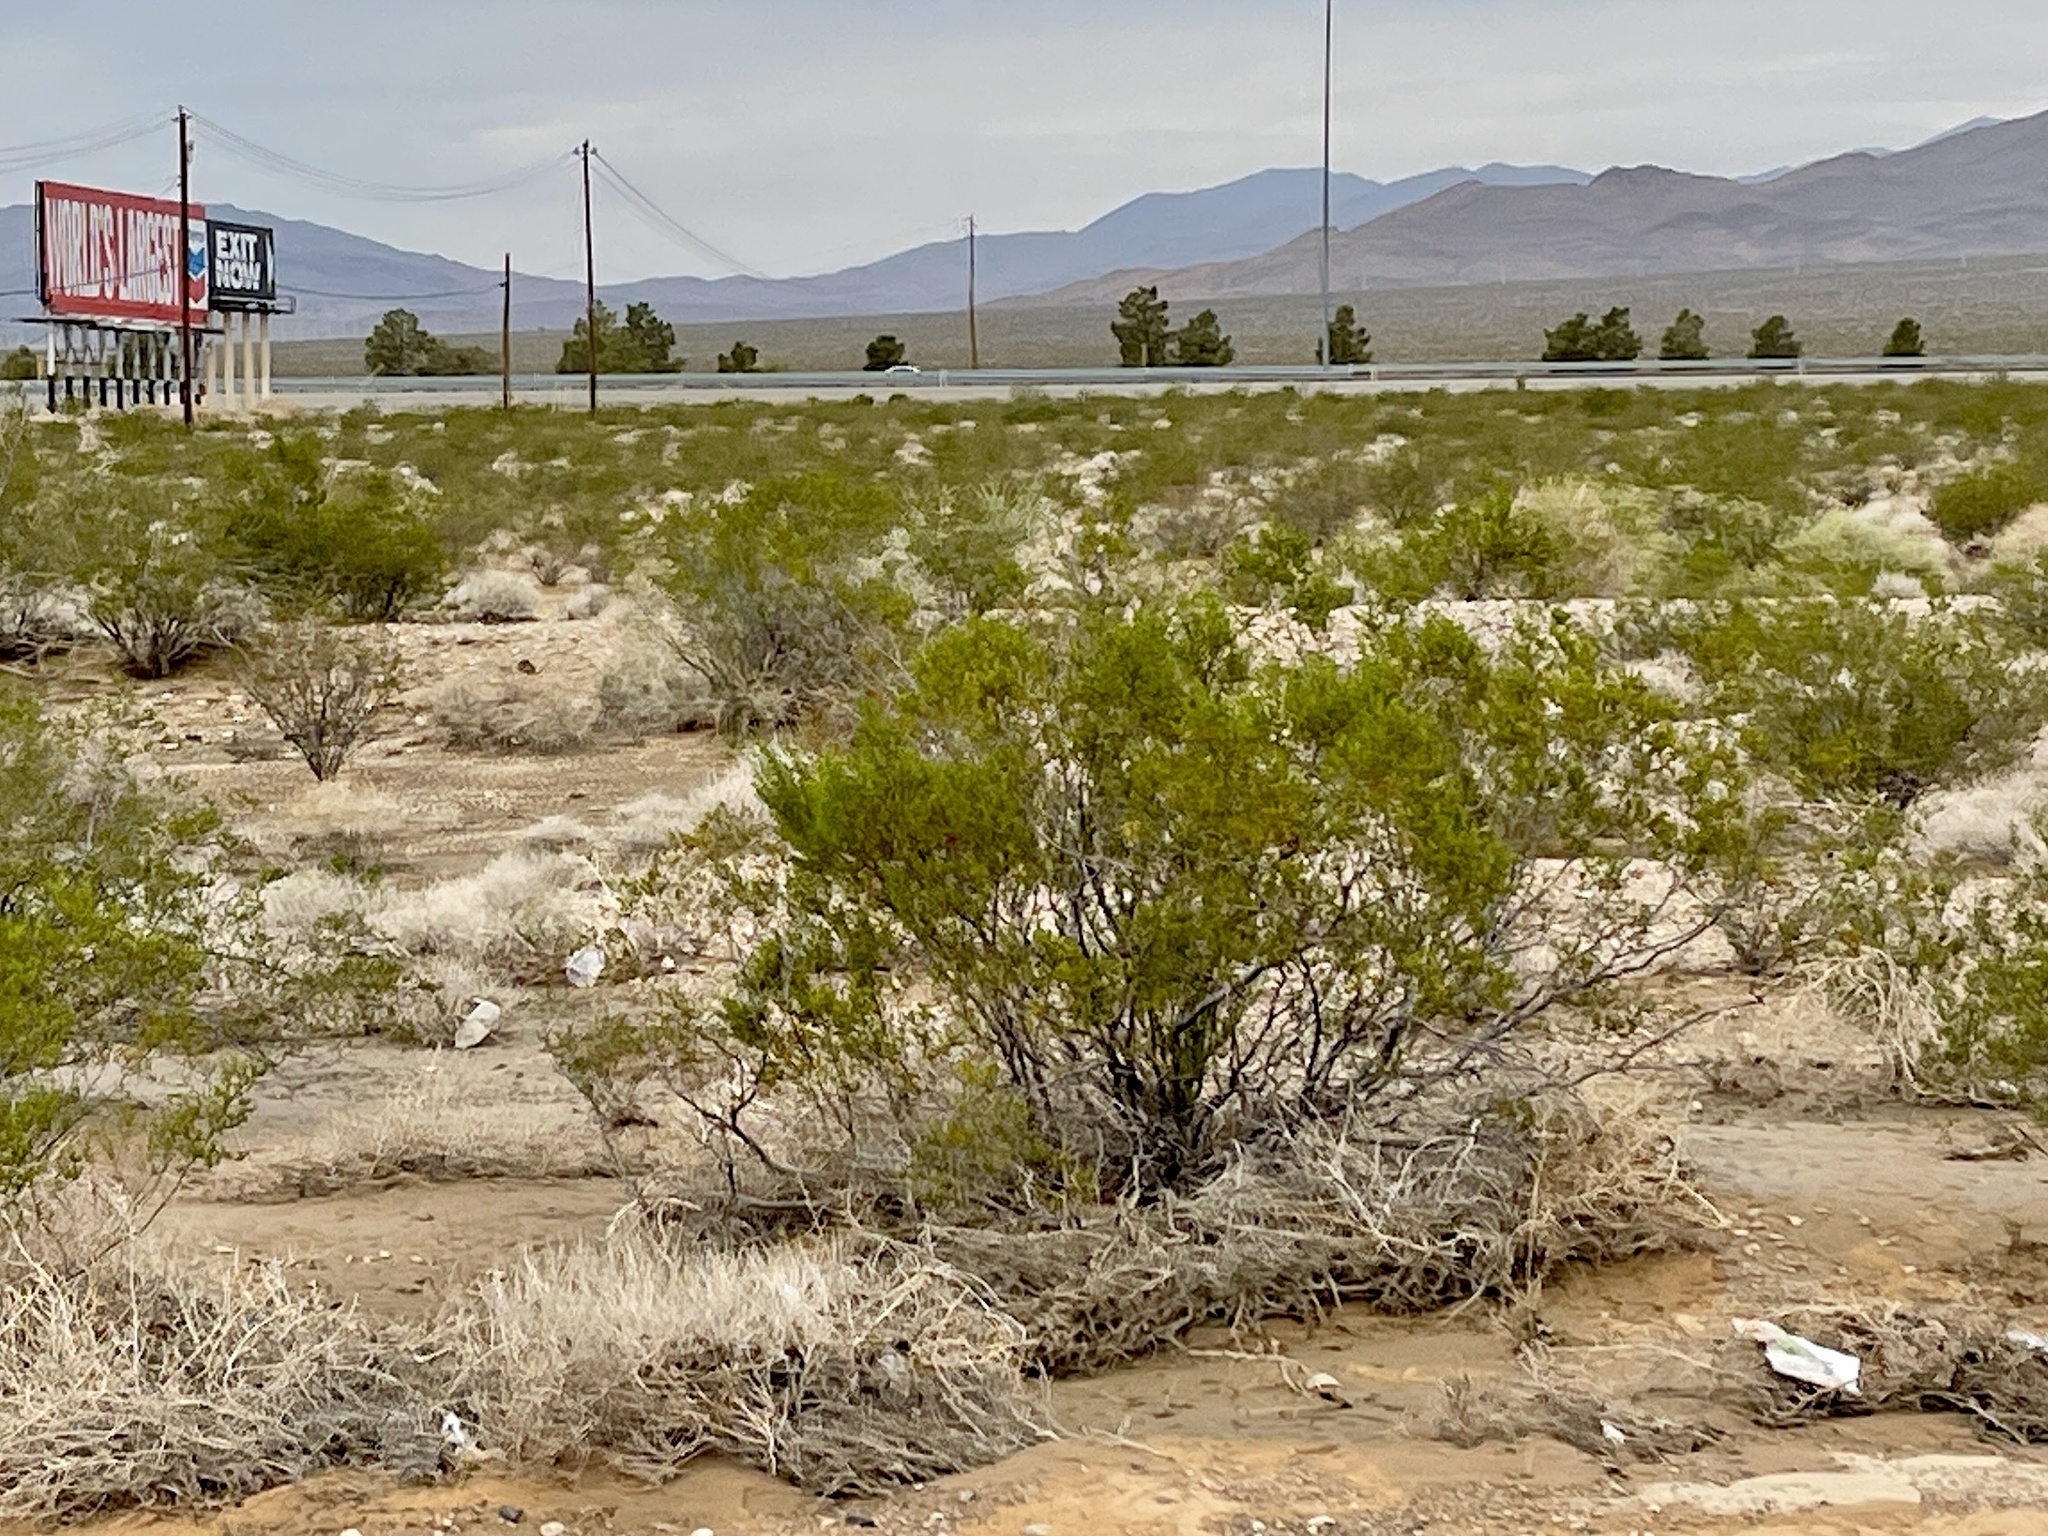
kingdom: Plantae
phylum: Tracheophyta
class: Magnoliopsida
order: Zygophyllales
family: Zygophyllaceae
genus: Larrea
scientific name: Larrea tridentata
